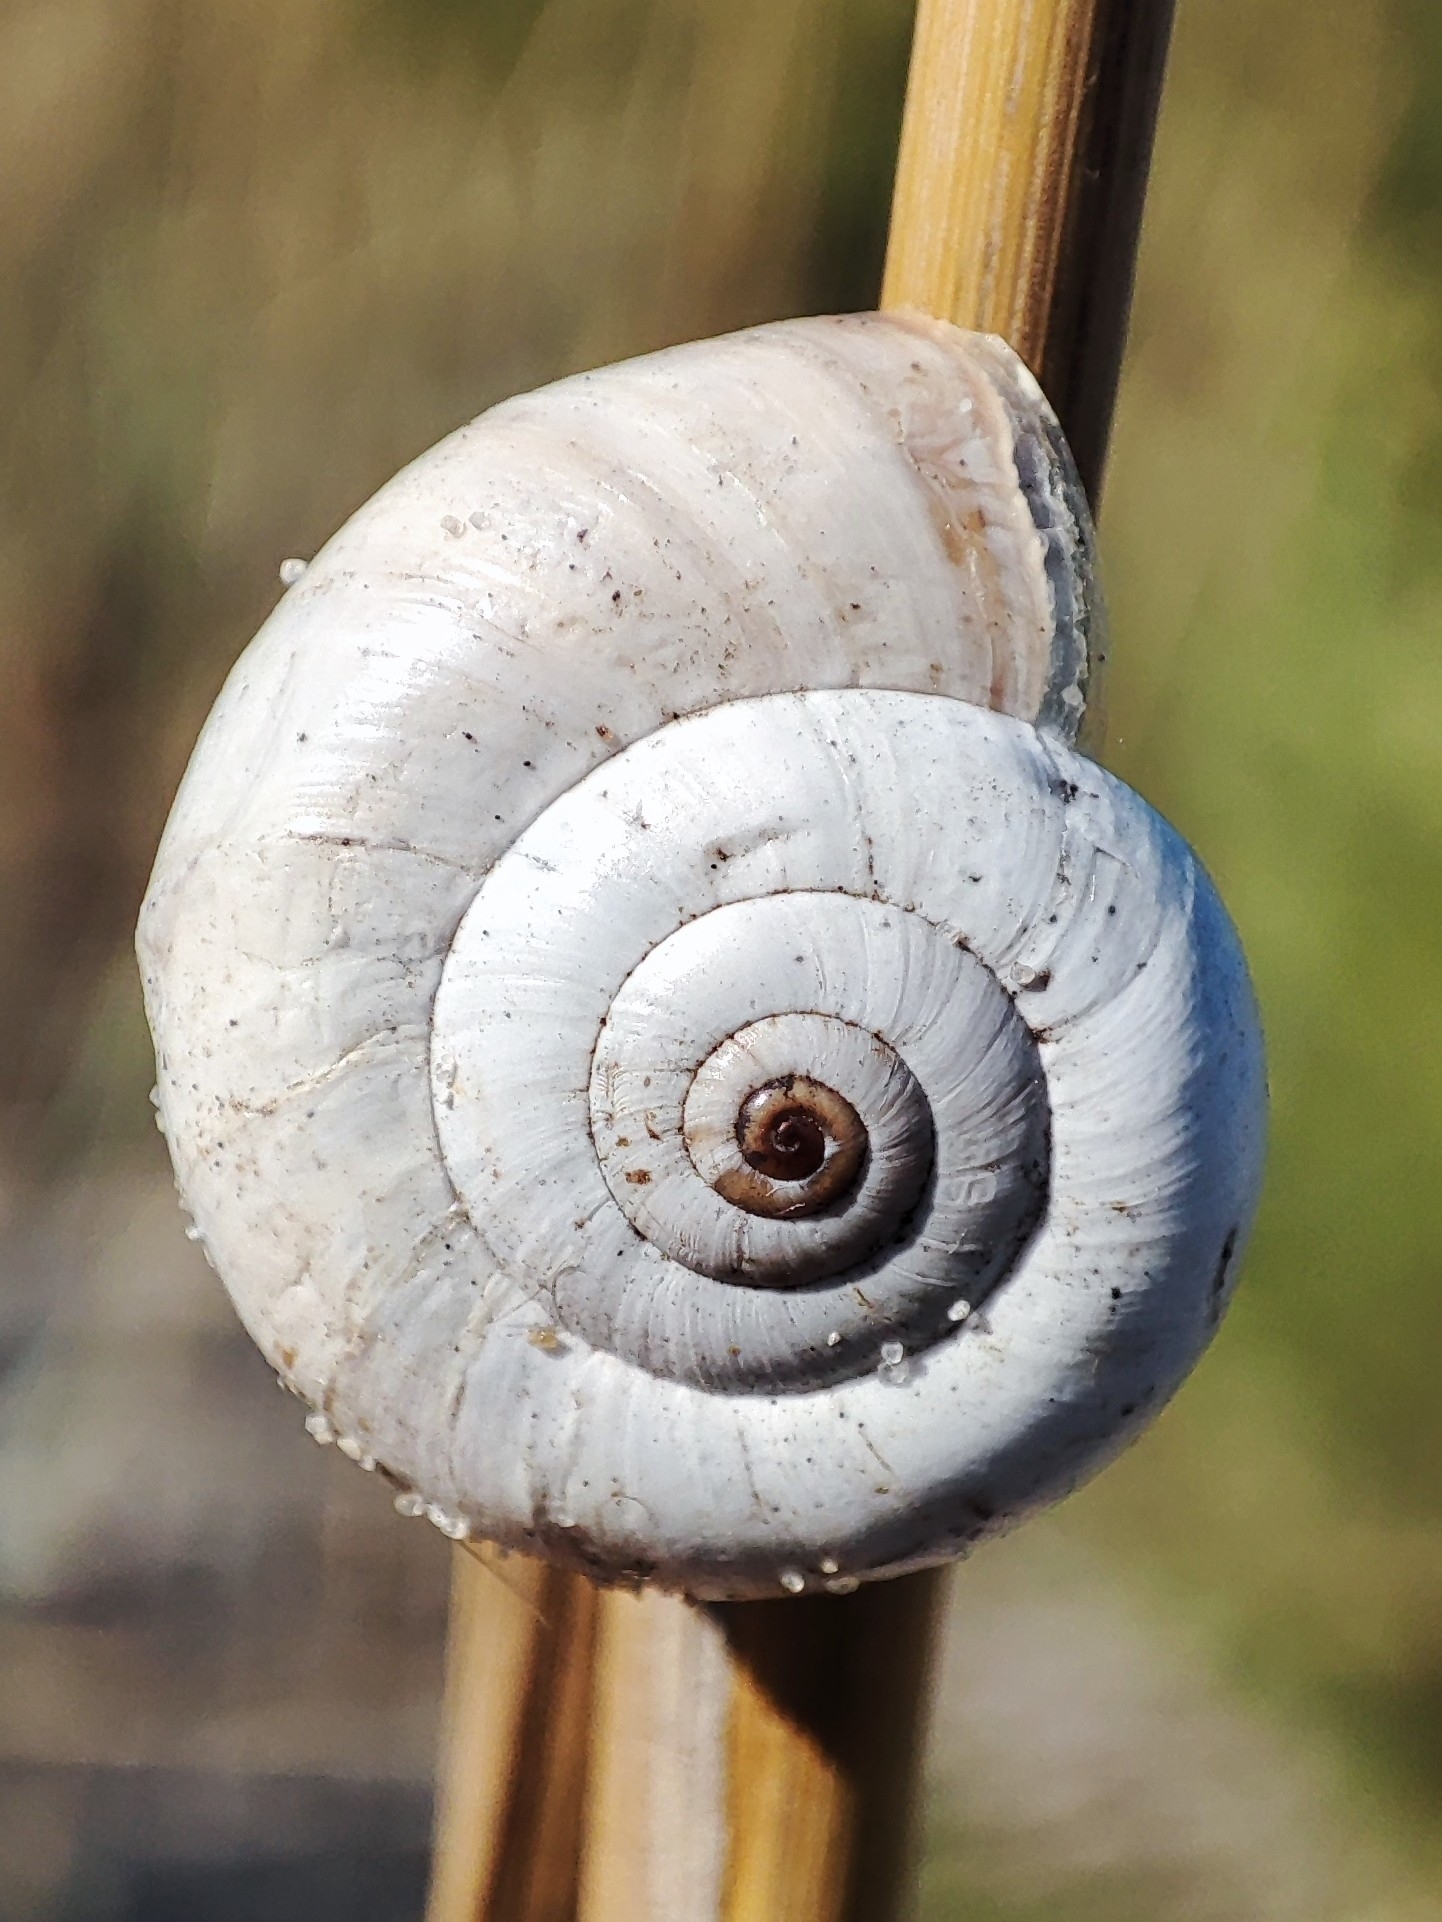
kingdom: Animalia
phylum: Mollusca
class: Gastropoda
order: Stylommatophora
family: Geomitridae
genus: Xeropicta
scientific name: Xeropicta derbentina
